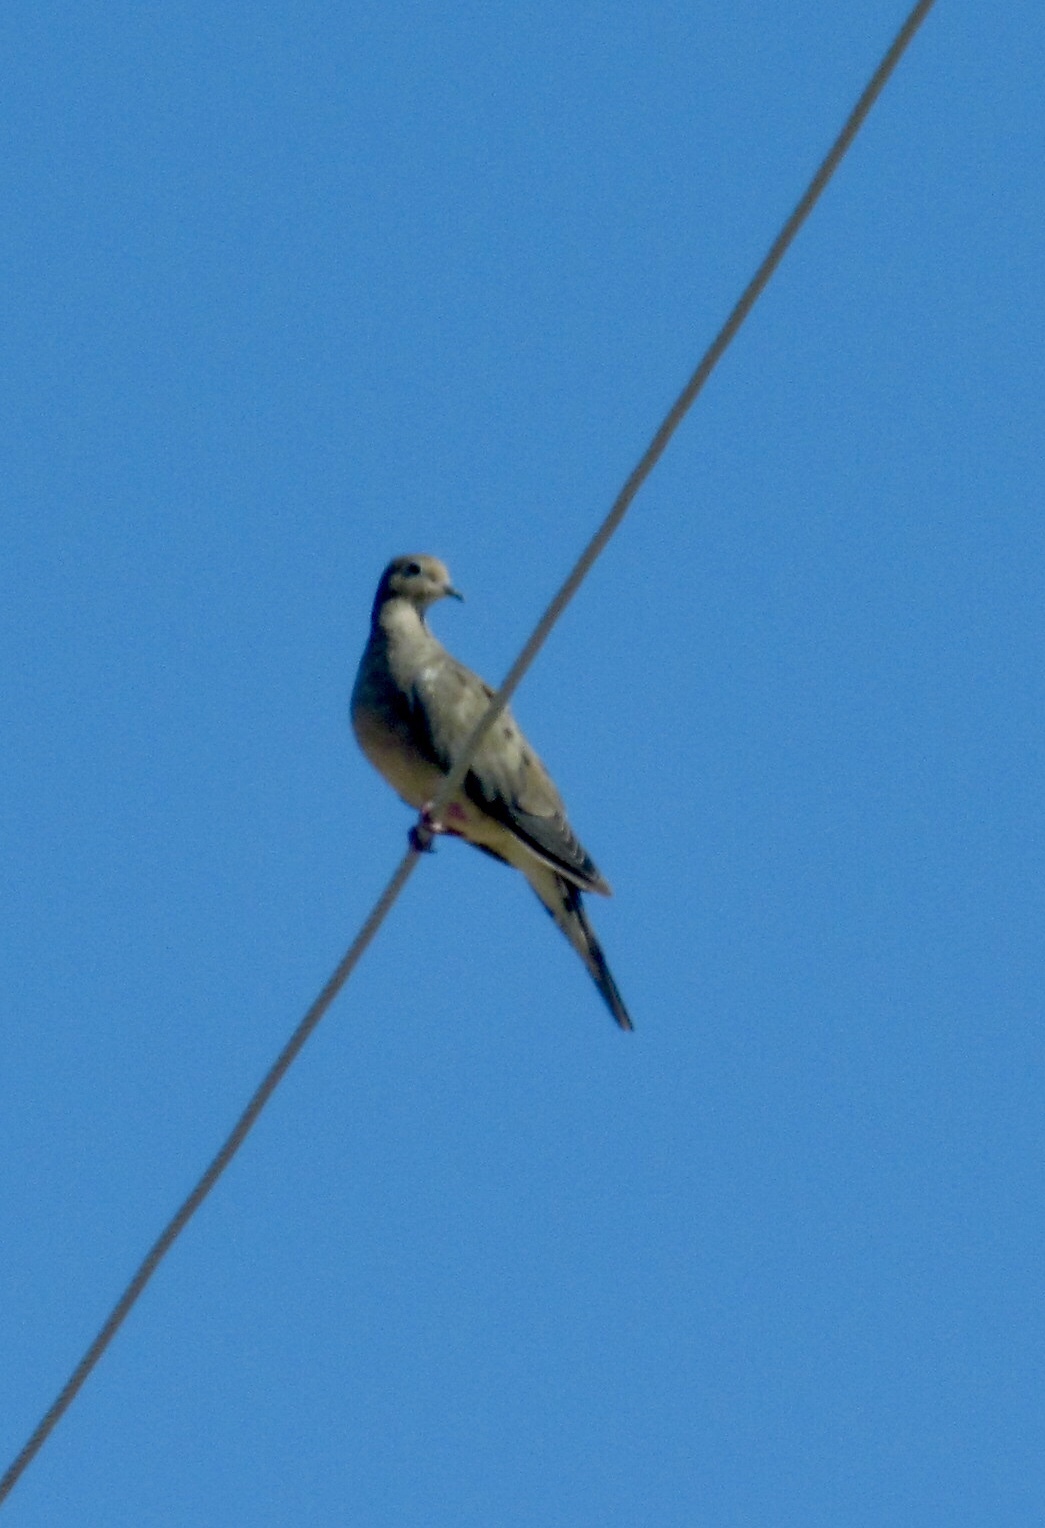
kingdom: Animalia
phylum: Chordata
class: Aves
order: Columbiformes
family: Columbidae
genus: Zenaida
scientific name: Zenaida macroura
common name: Mourning dove
